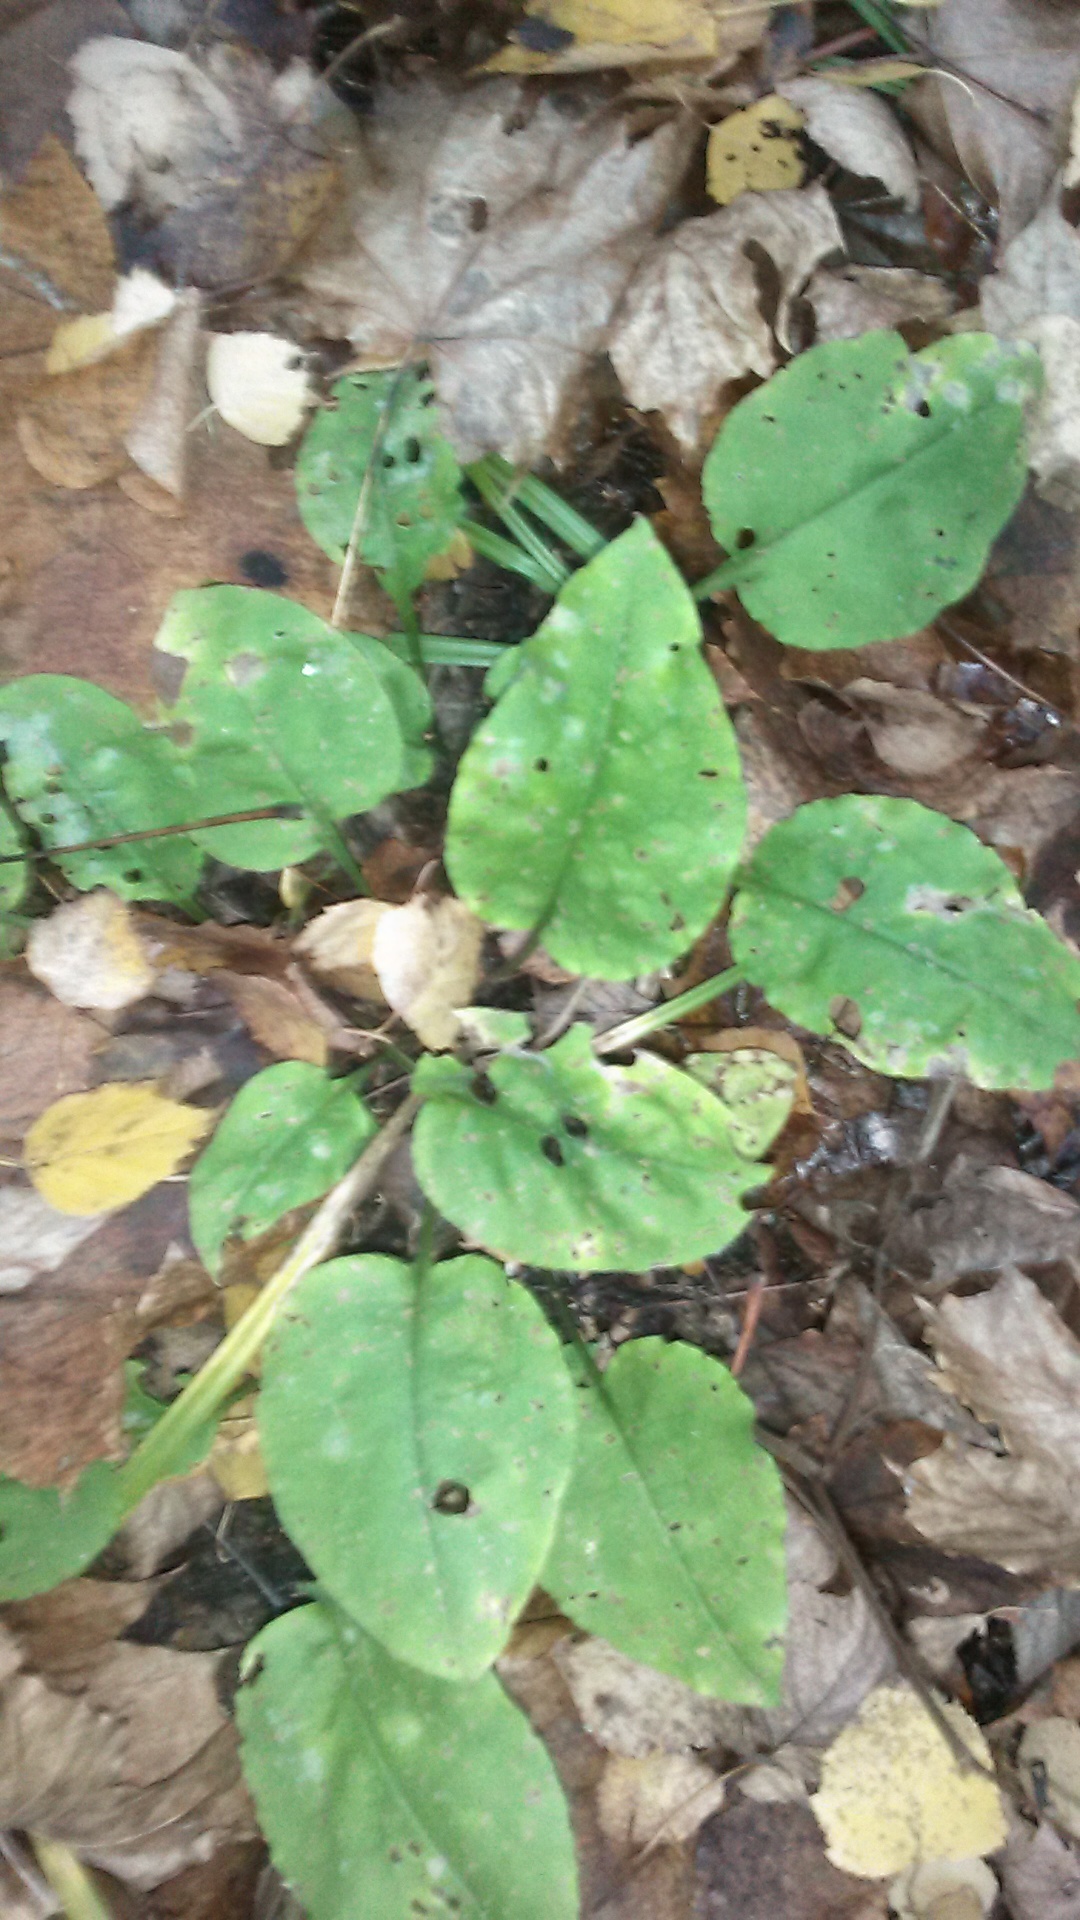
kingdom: Plantae
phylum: Tracheophyta
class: Magnoliopsida
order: Boraginales
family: Boraginaceae
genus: Pulmonaria
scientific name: Pulmonaria obscura
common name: Suffolk lungwort
